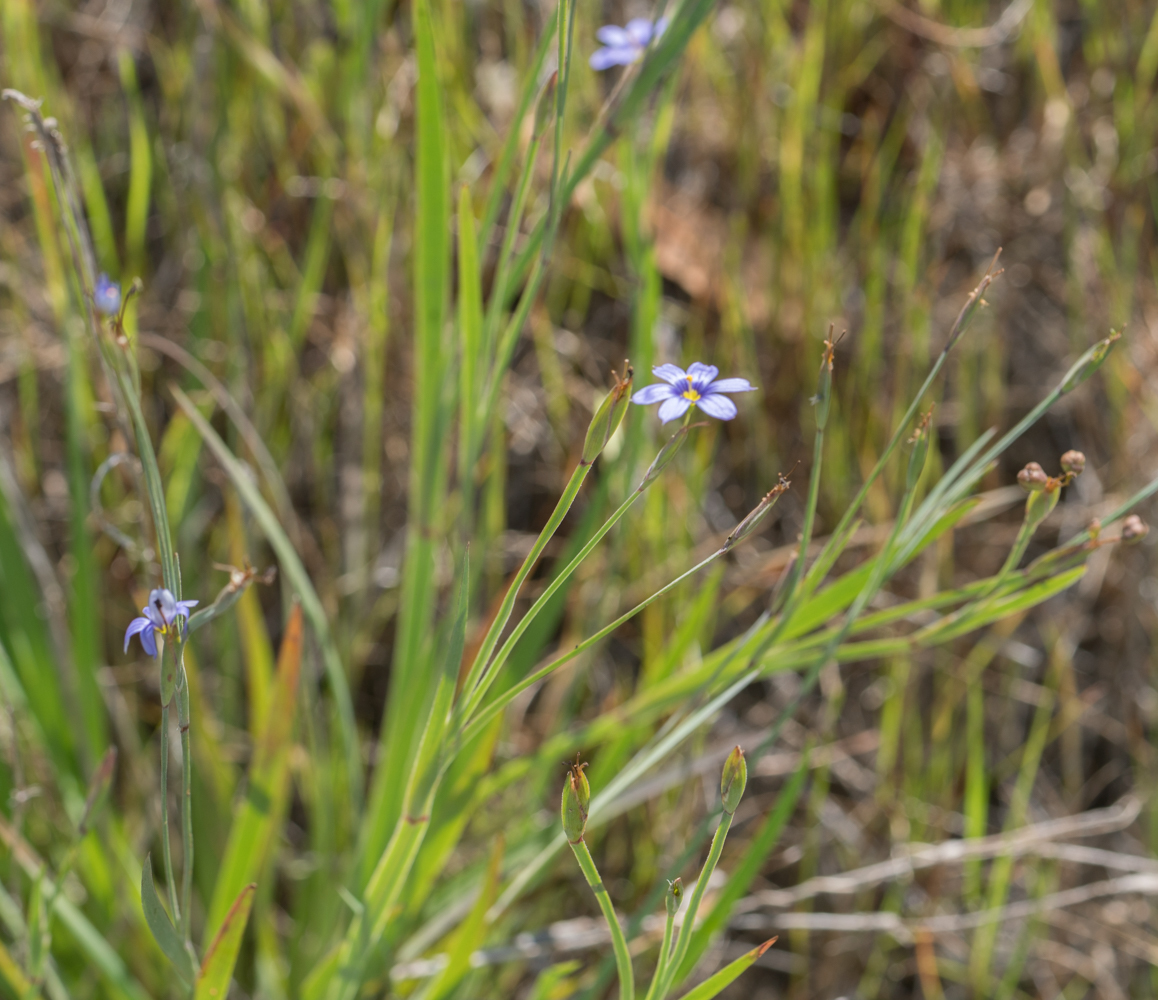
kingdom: Plantae
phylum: Tracheophyta
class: Liliopsida
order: Asparagales
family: Iridaceae
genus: Sisyrinchium
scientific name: Sisyrinchium bellum
